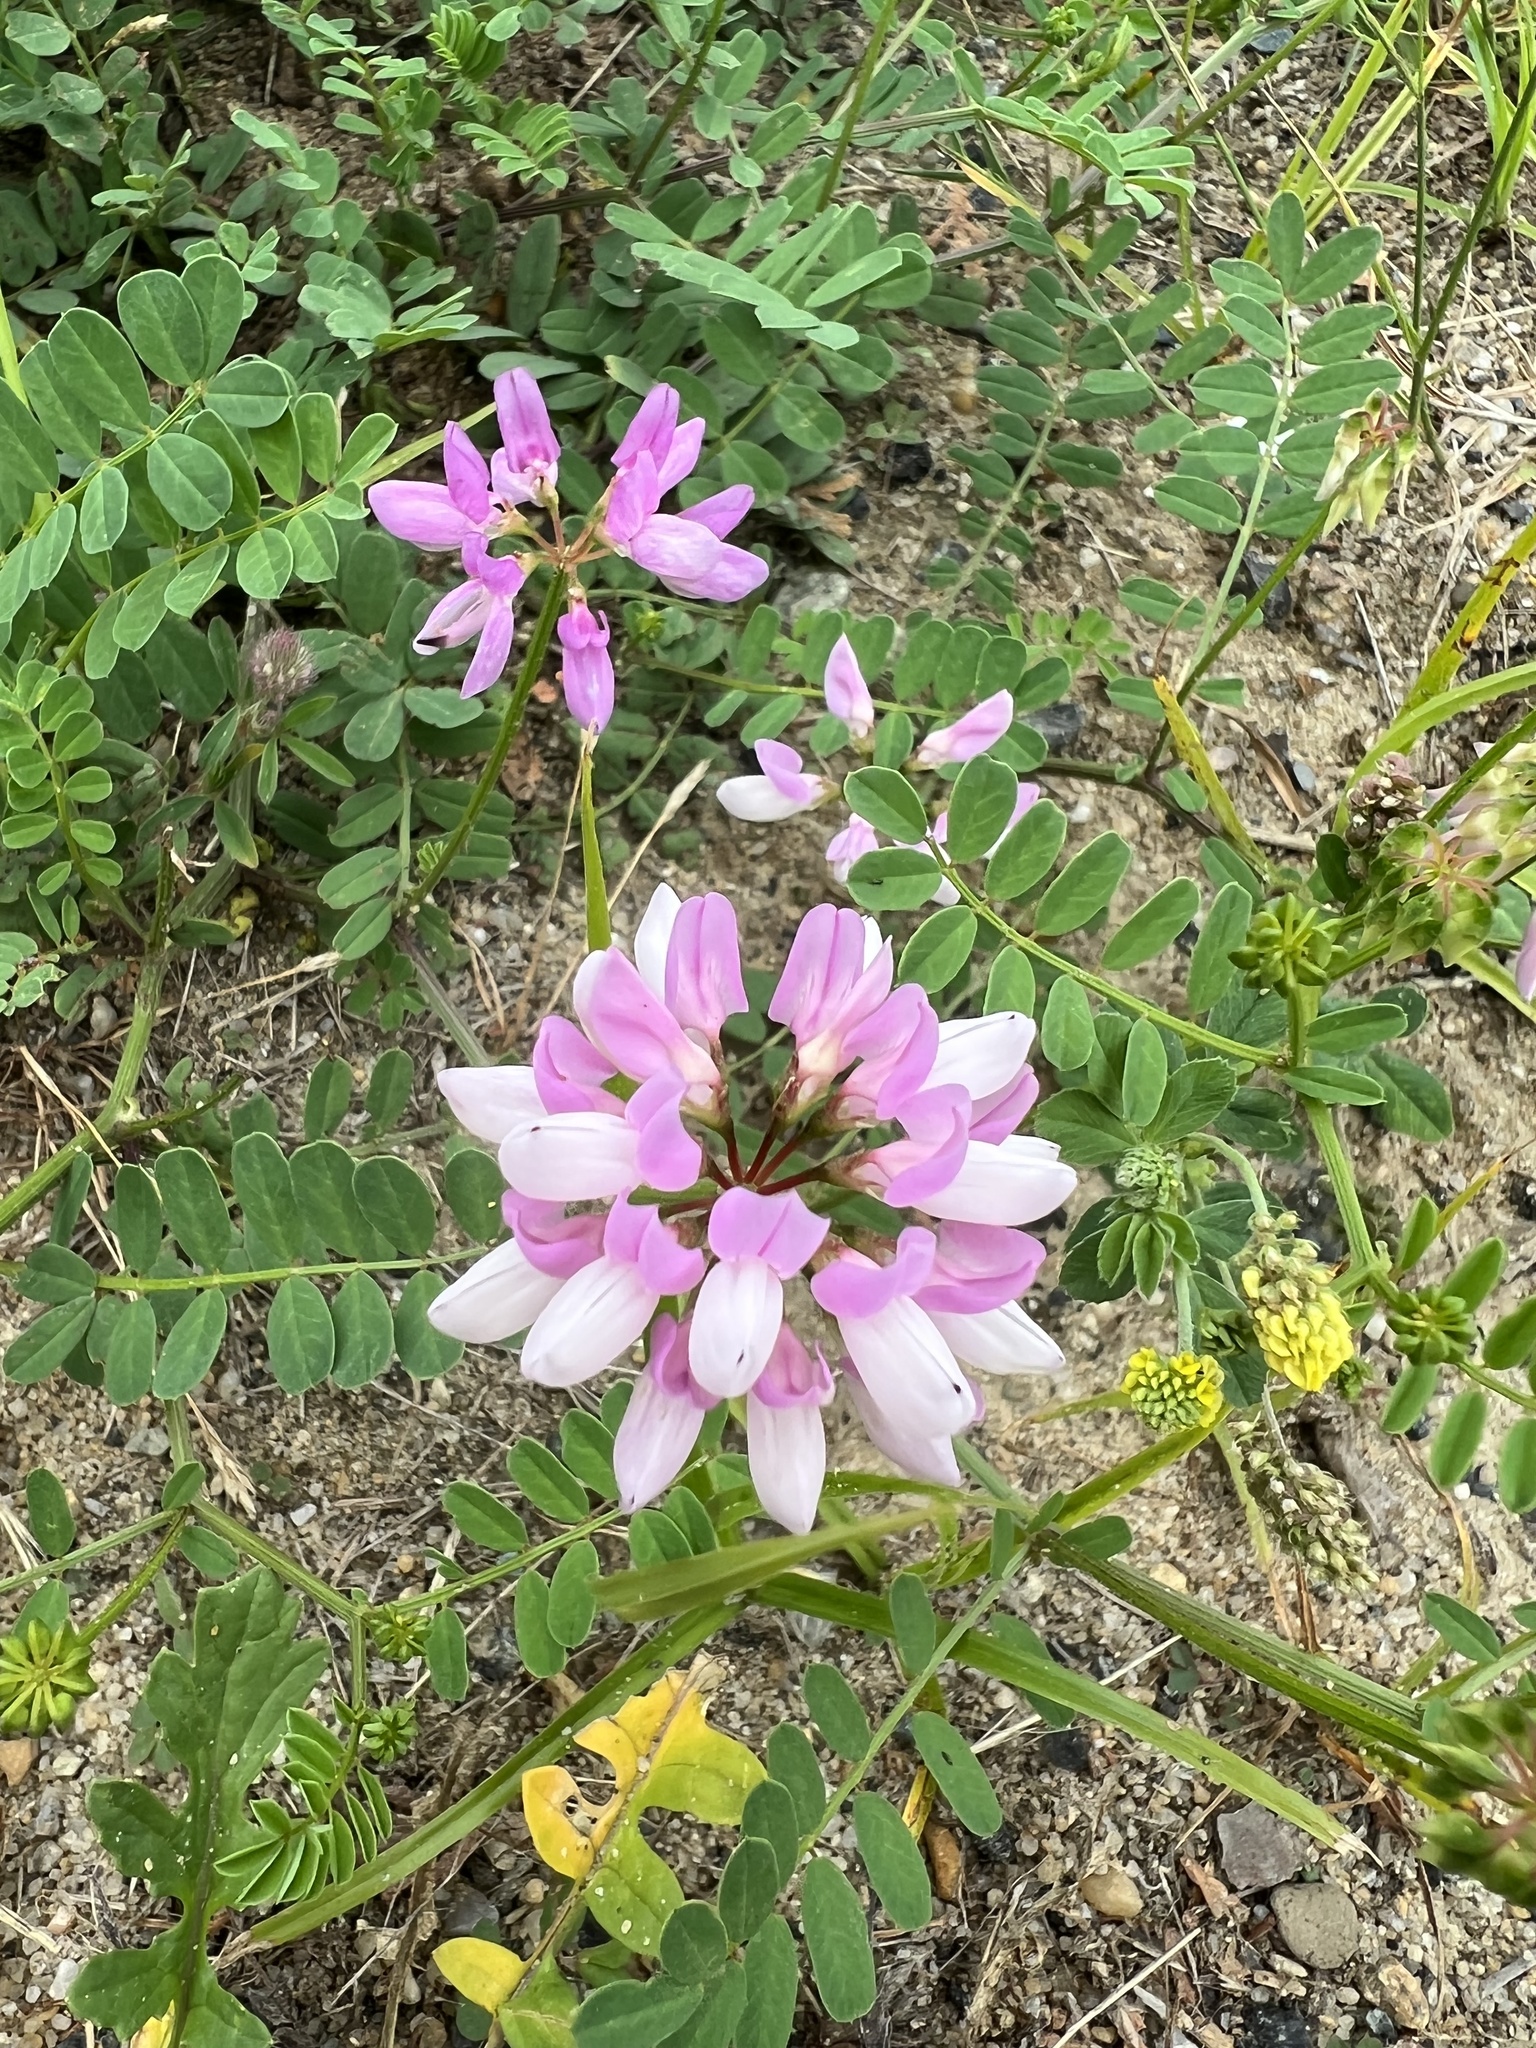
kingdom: Plantae
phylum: Tracheophyta
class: Magnoliopsida
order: Fabales
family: Fabaceae
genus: Coronilla
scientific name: Coronilla varia
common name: Crownvetch
